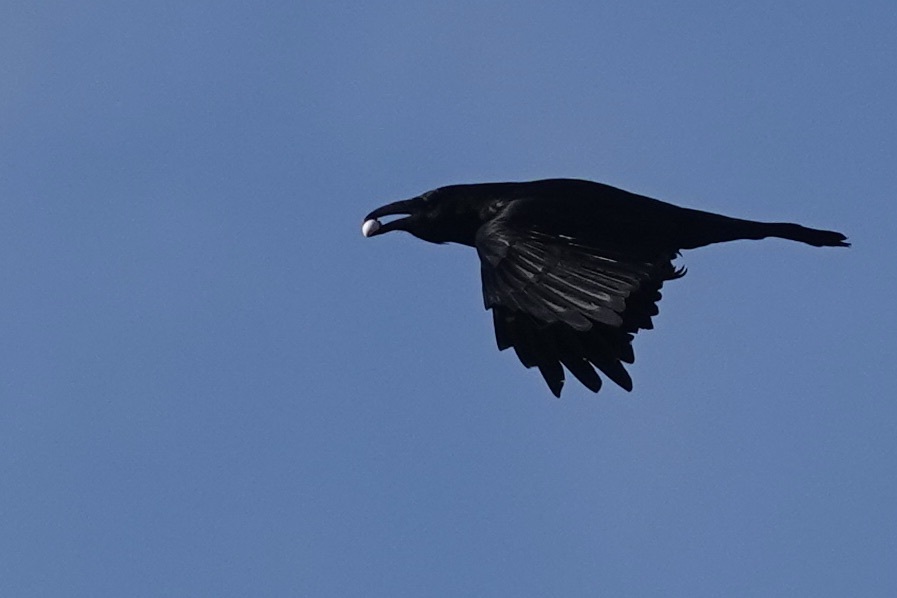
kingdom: Animalia
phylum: Chordata
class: Aves
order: Passeriformes
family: Corvidae
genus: Corvus
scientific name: Corvus corax
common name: Common raven
